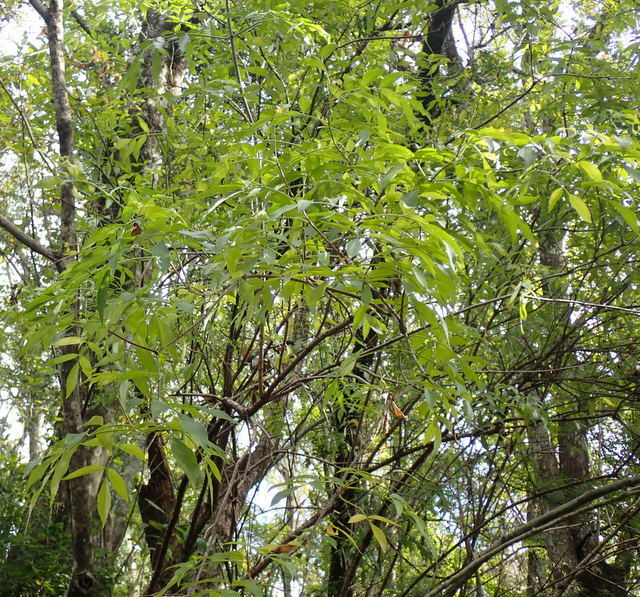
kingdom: Plantae
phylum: Tracheophyta
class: Magnoliopsida
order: Dipsacales
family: Viburnaceae
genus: Sambucus
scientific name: Sambucus canadensis
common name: American elder
